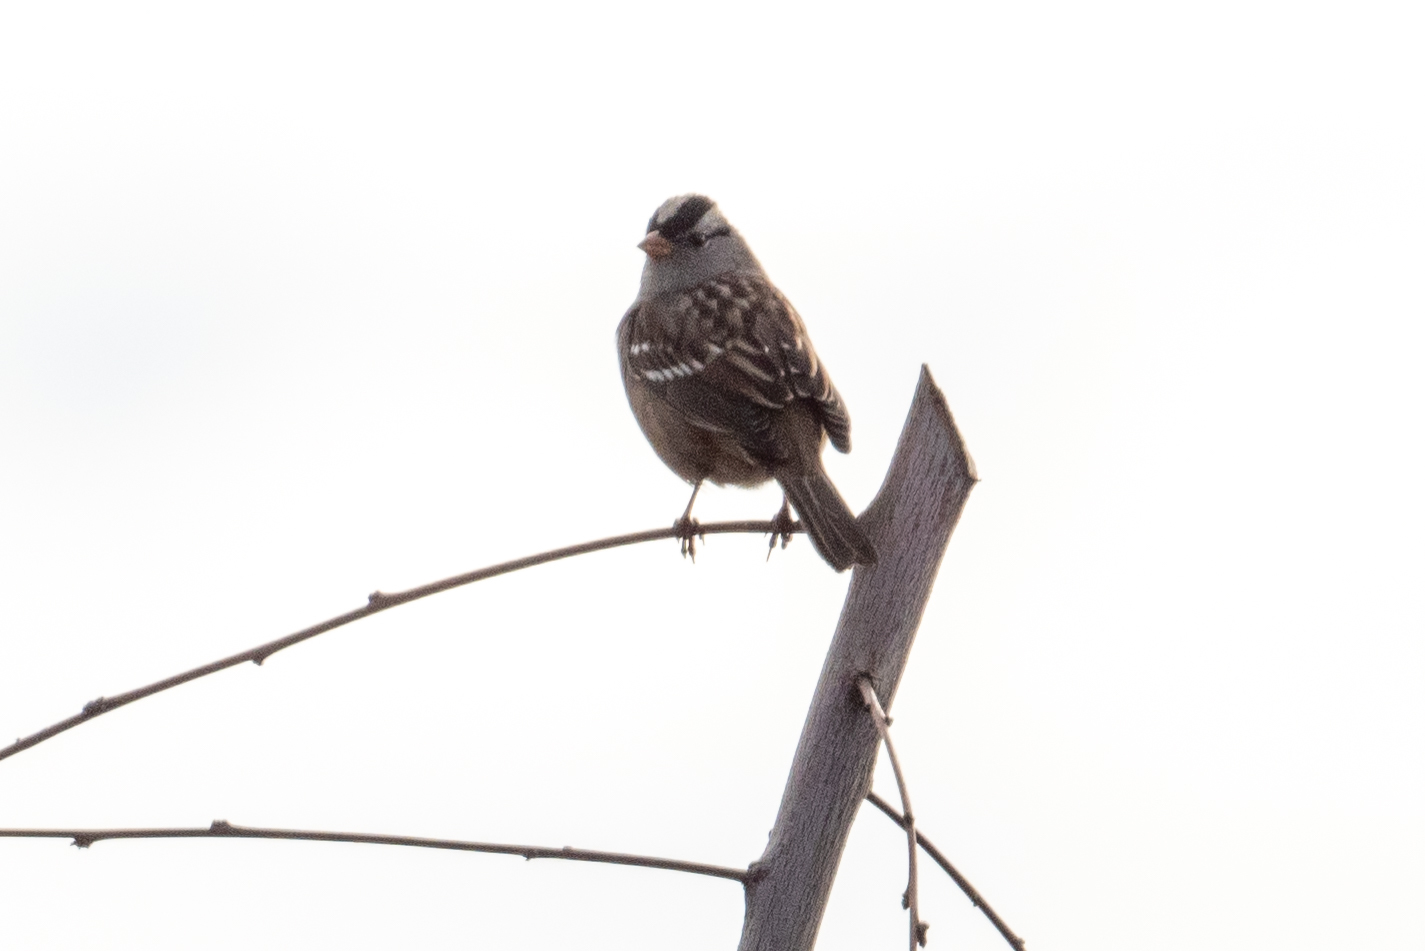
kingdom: Animalia
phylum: Chordata
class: Aves
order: Passeriformes
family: Passerellidae
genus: Zonotrichia
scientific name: Zonotrichia leucophrys
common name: White-crowned sparrow
